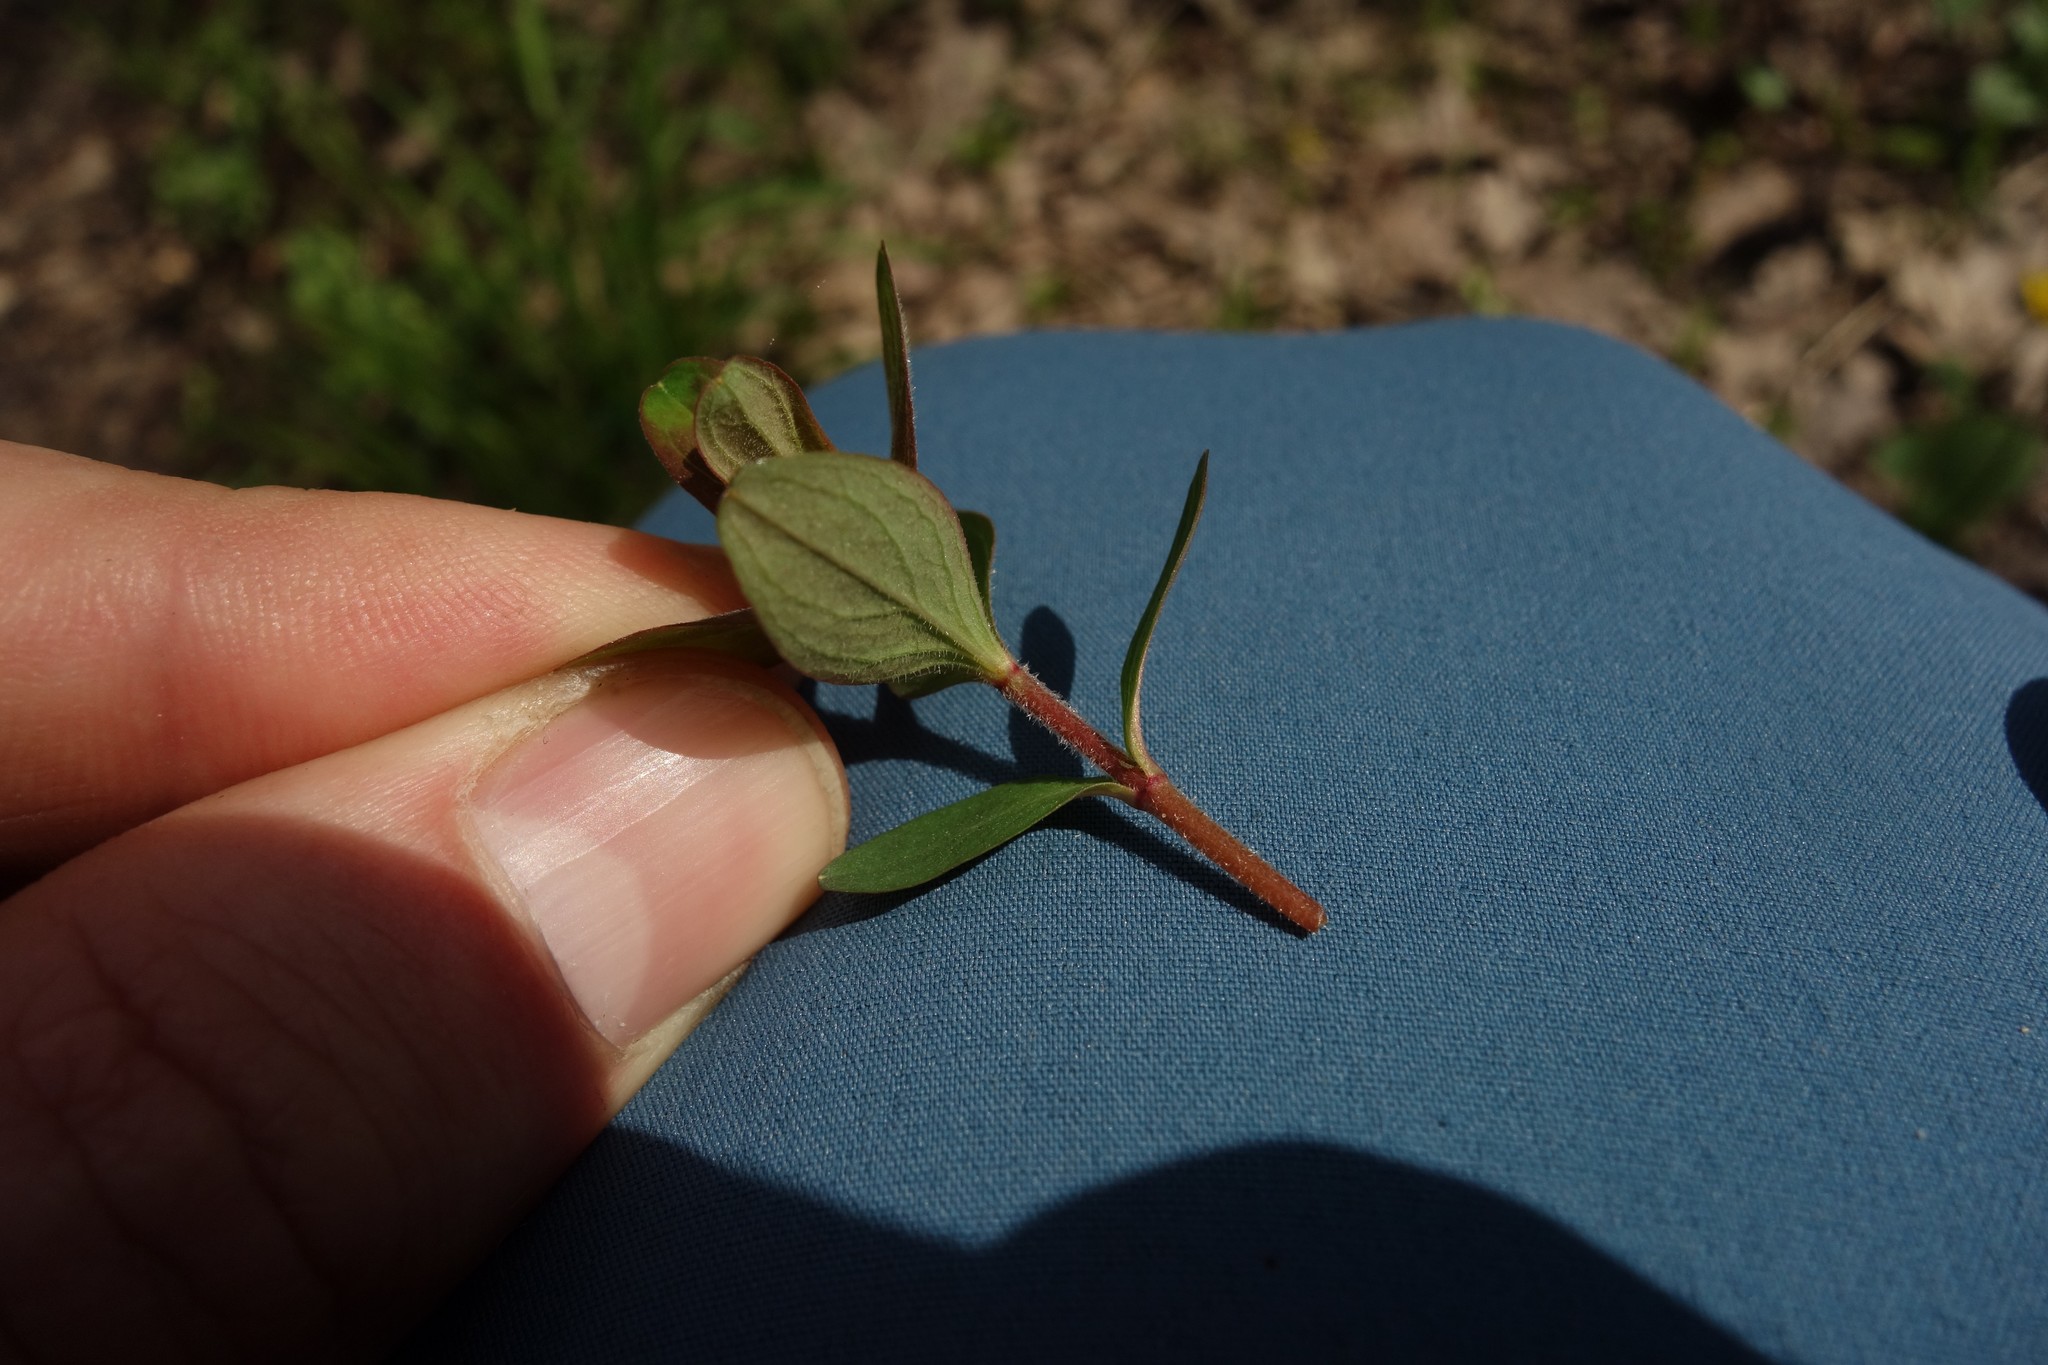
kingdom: Plantae
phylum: Tracheophyta
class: Magnoliopsida
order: Malpighiales
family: Hypericaceae
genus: Hypericum
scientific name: Hypericum hirsutum
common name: Hairy st. john's-wort
